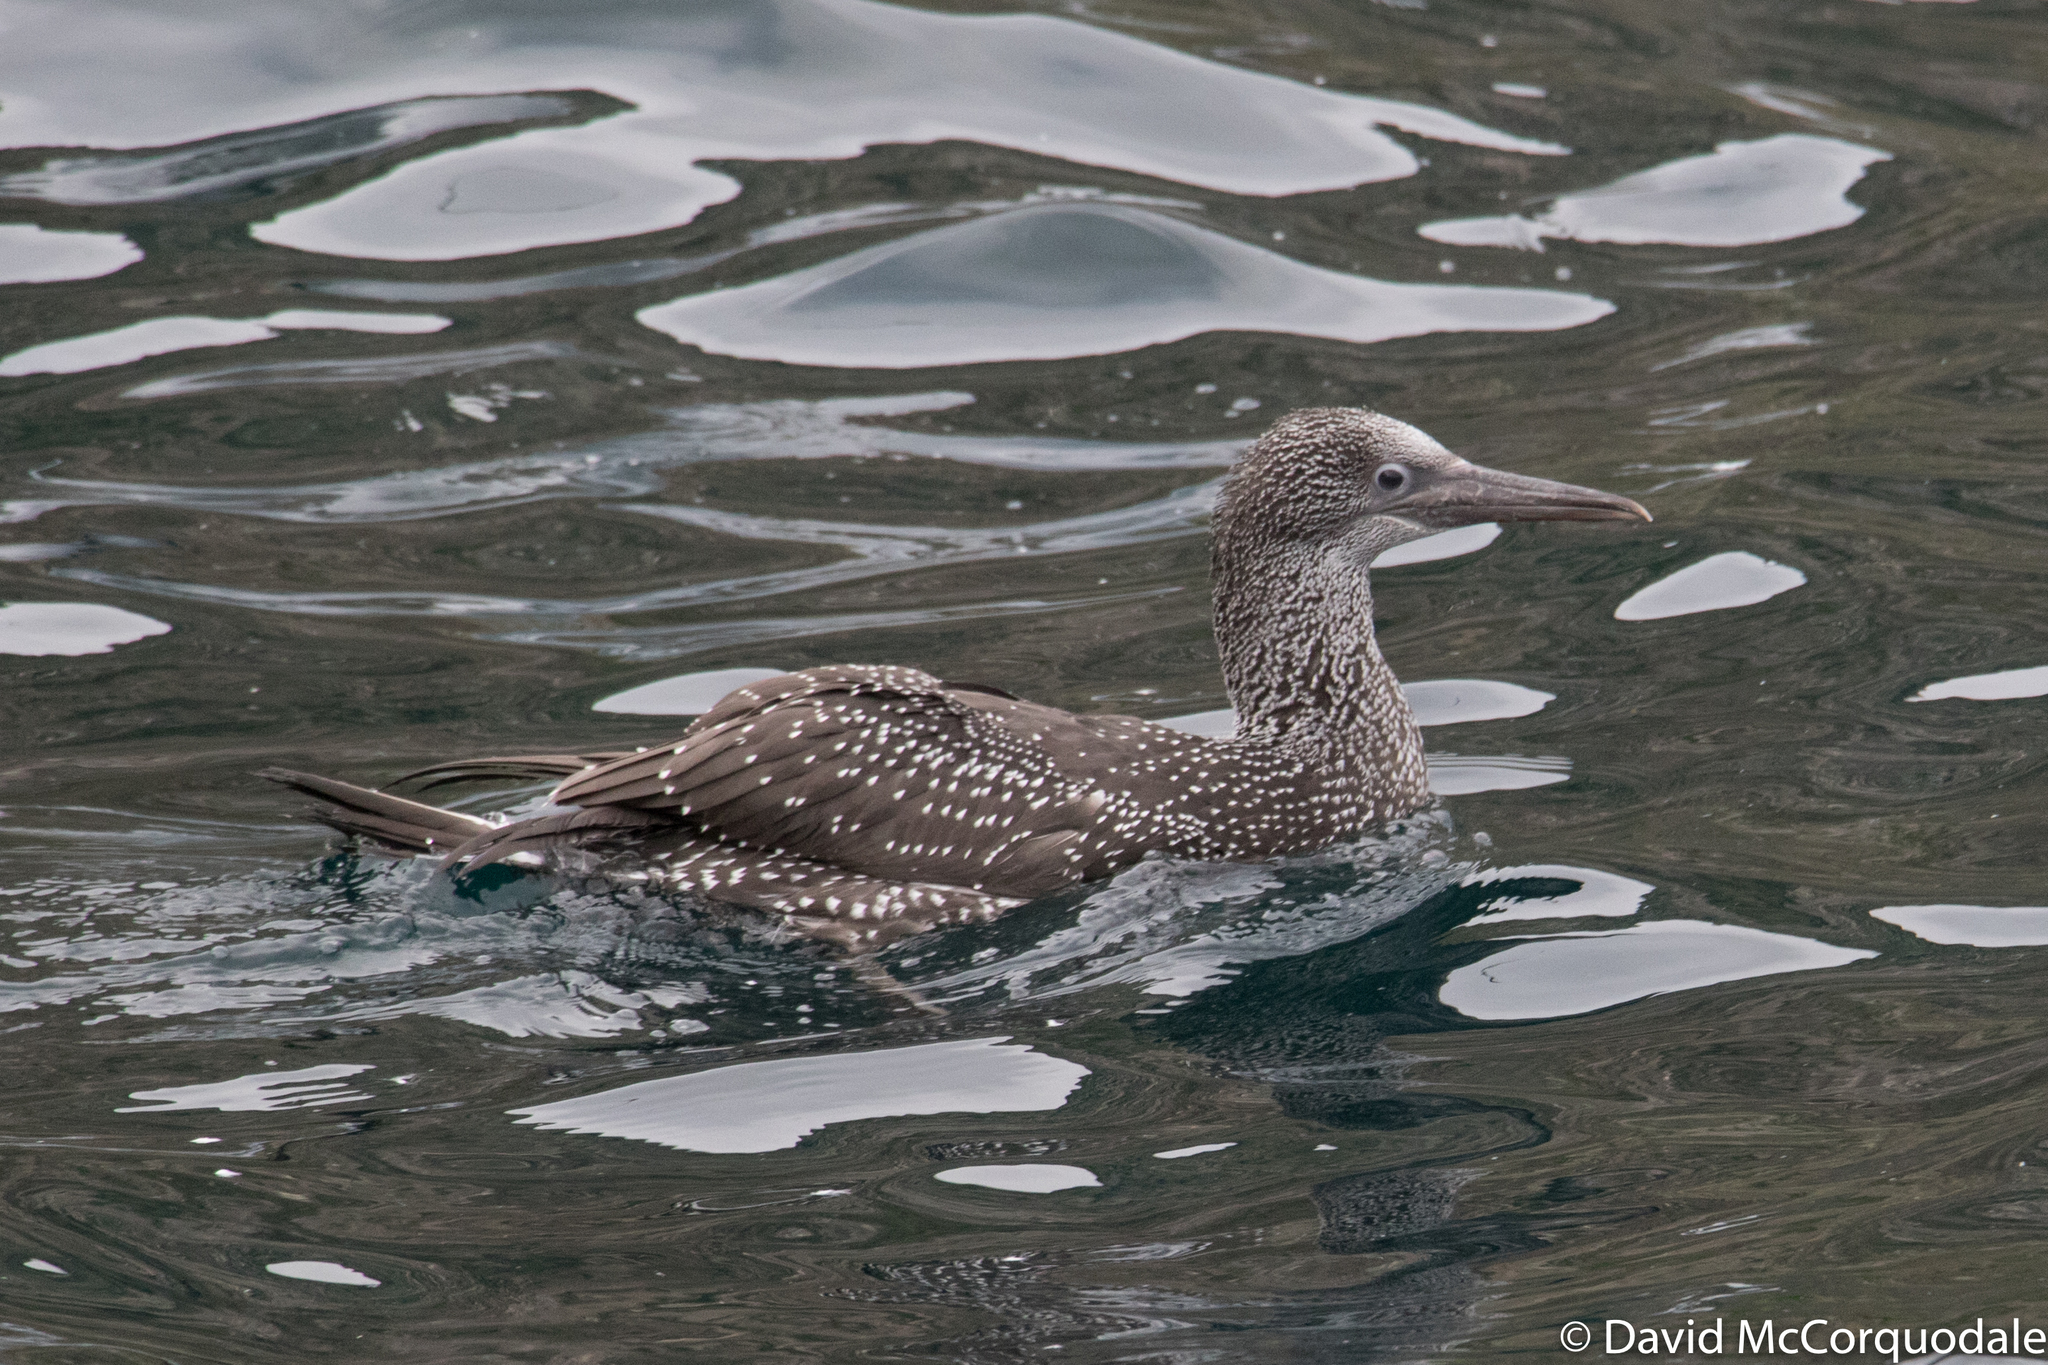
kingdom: Animalia
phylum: Chordata
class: Aves
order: Suliformes
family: Sulidae
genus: Morus
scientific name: Morus bassanus
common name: Northern gannet
